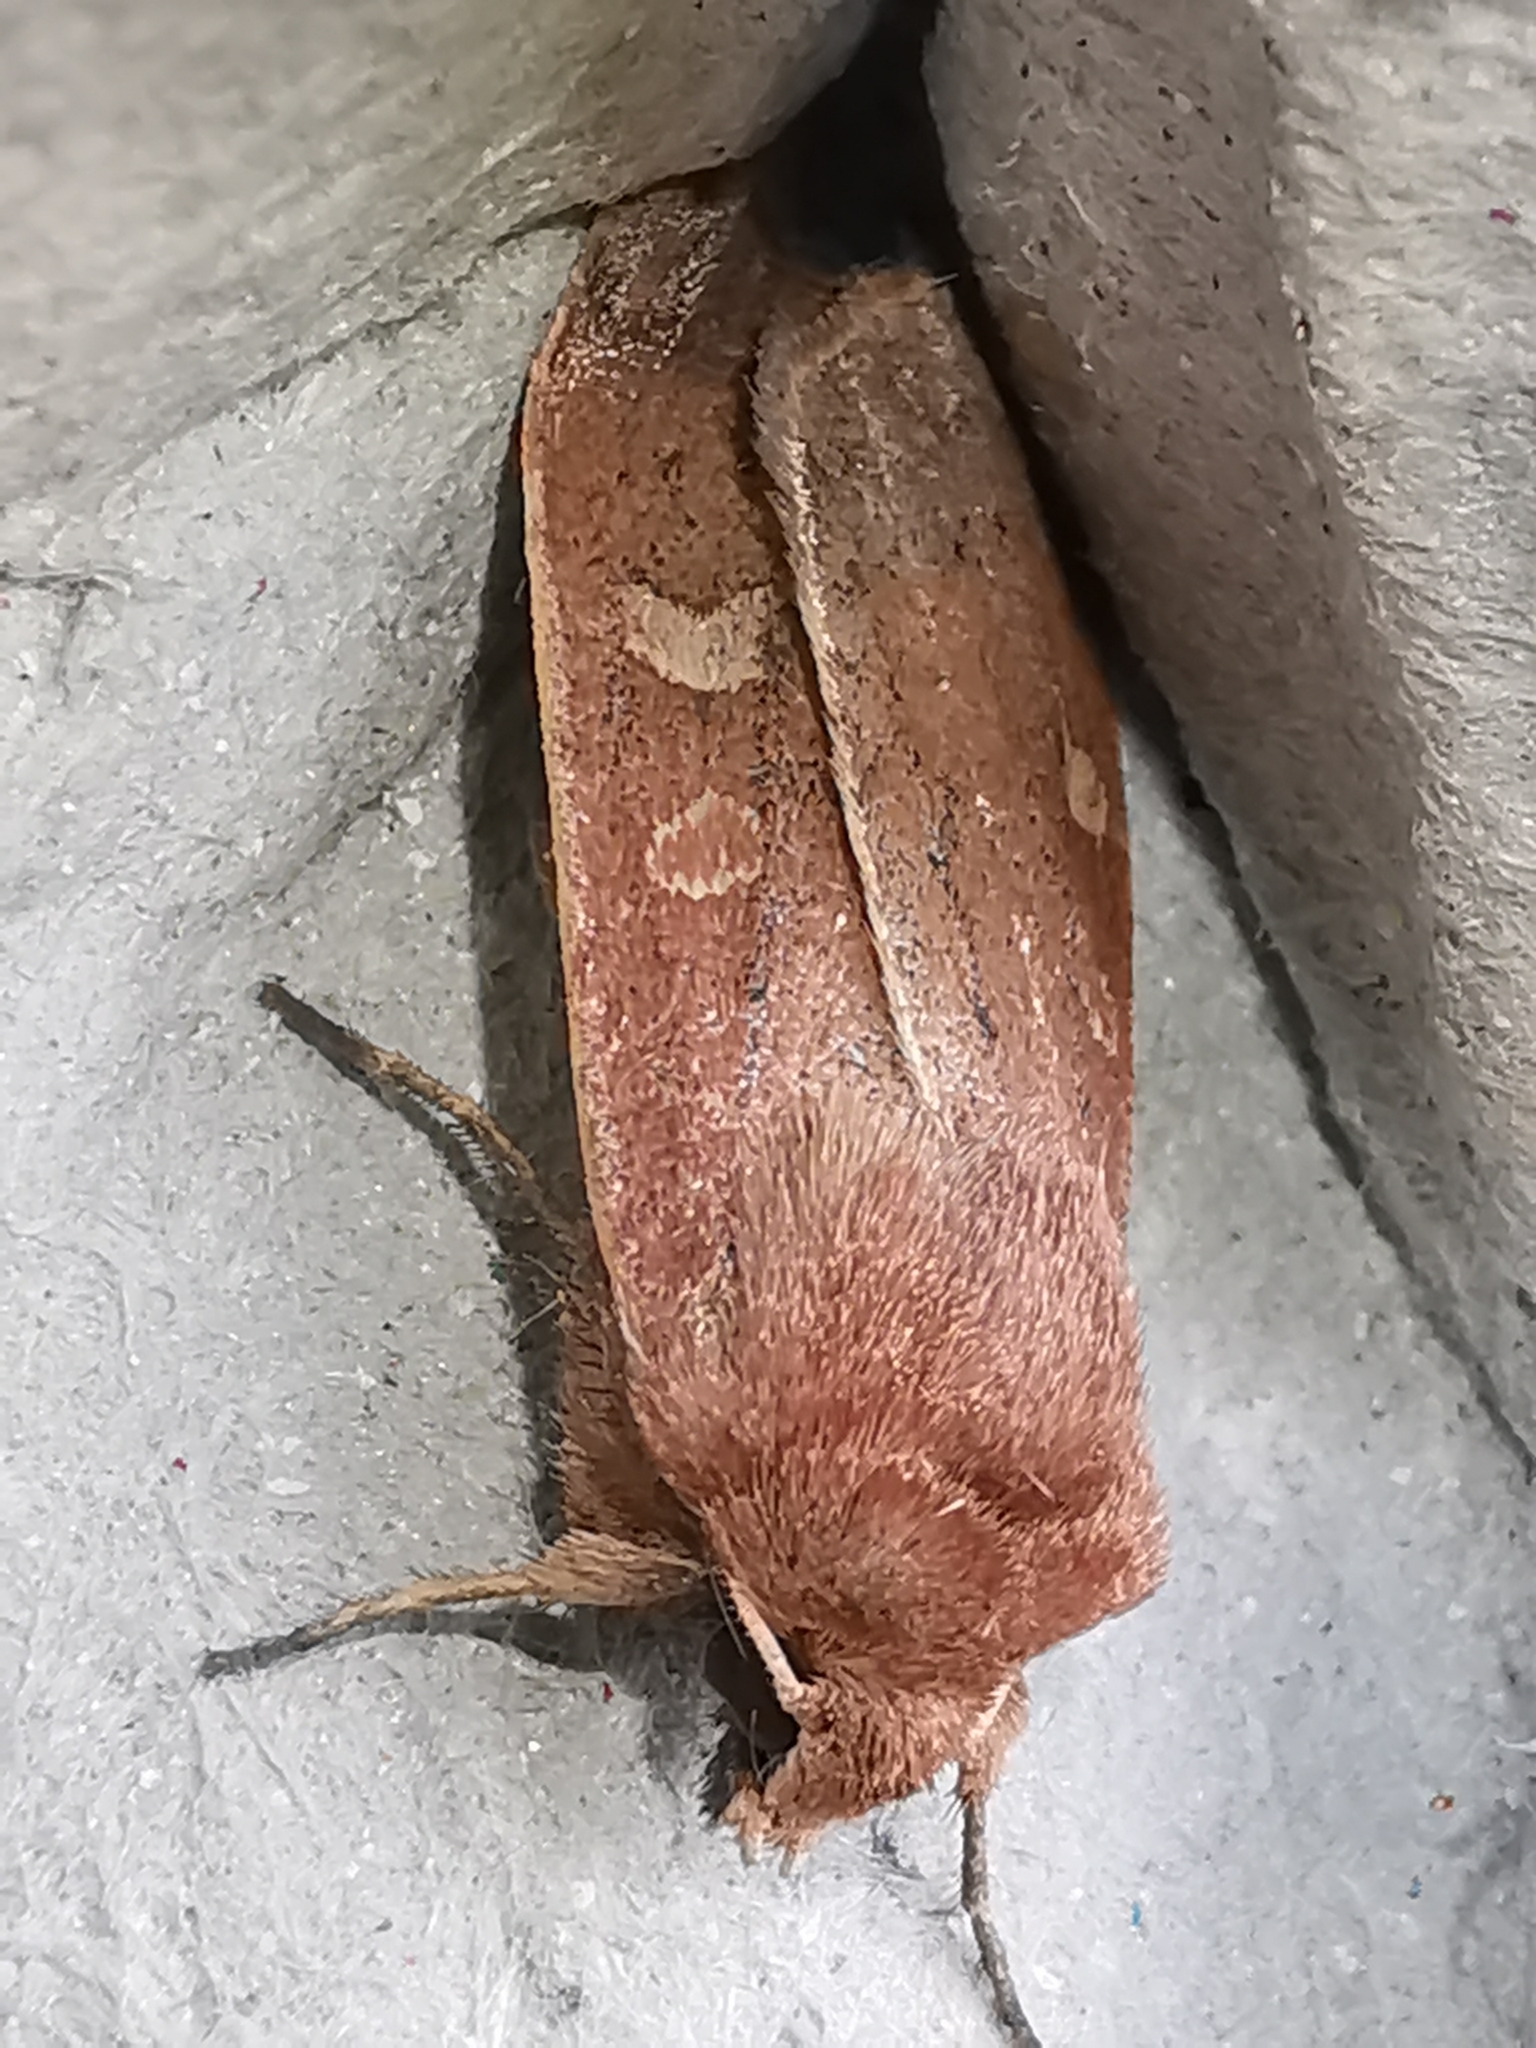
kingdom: Animalia
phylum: Arthropoda
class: Insecta
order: Lepidoptera
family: Noctuidae
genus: Xestia
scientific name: Xestia xanthographa
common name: Square-spot rustic
